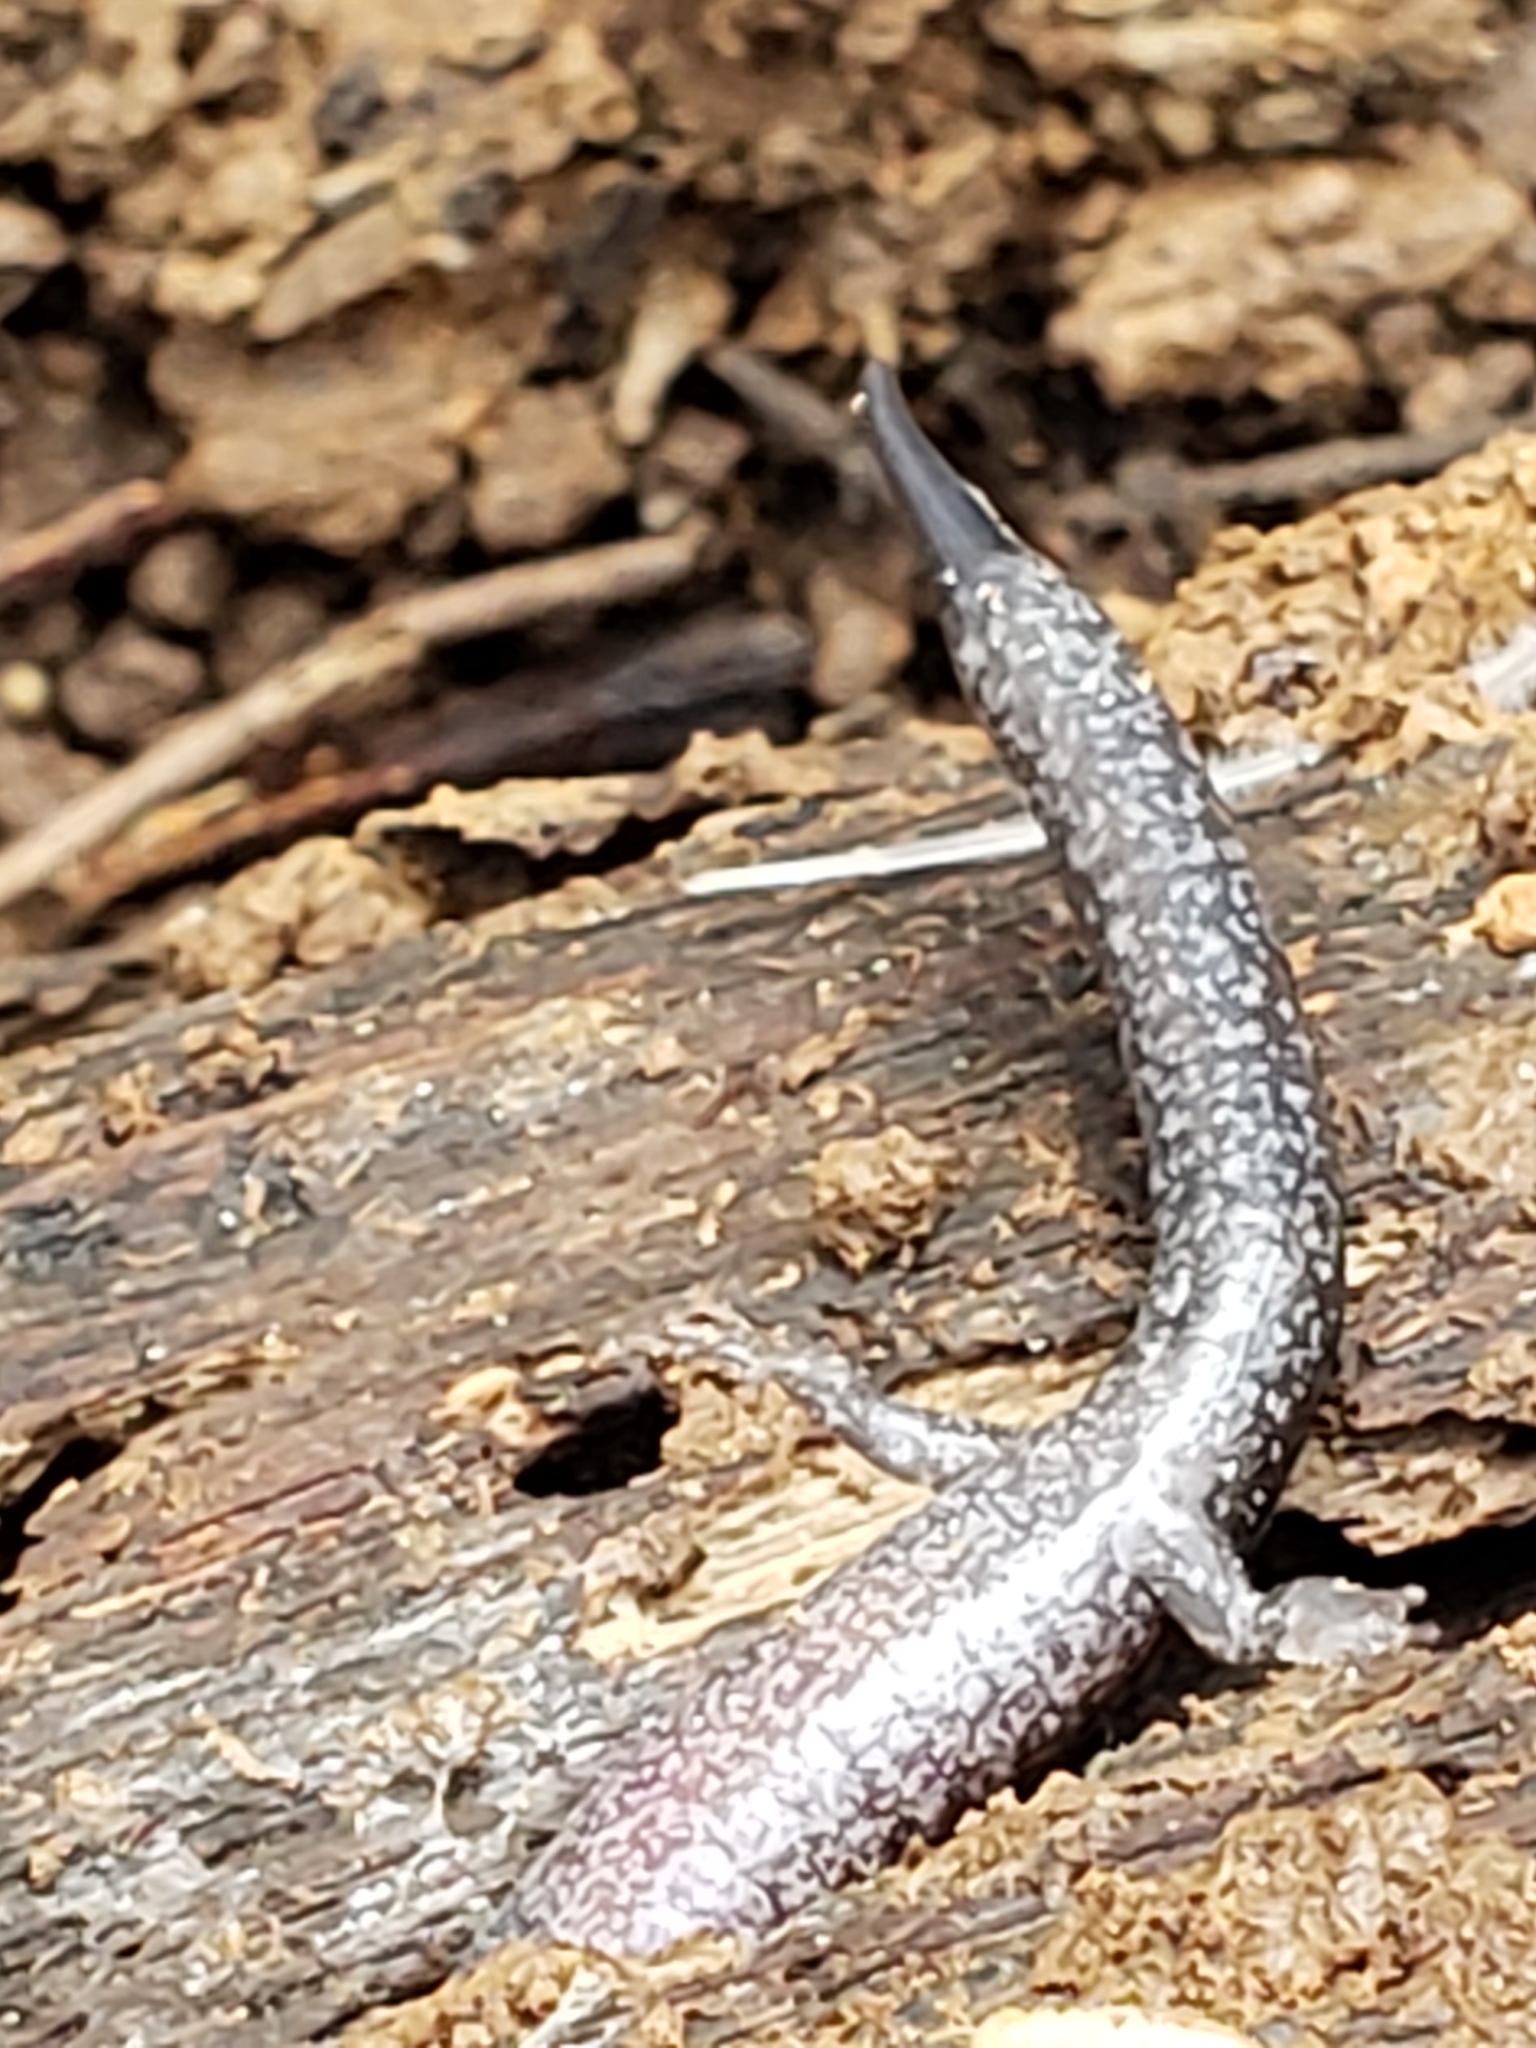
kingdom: Animalia
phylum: Chordata
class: Amphibia
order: Caudata
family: Plethodontidae
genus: Plethodon
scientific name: Plethodon cinereus
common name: Redback salamander
